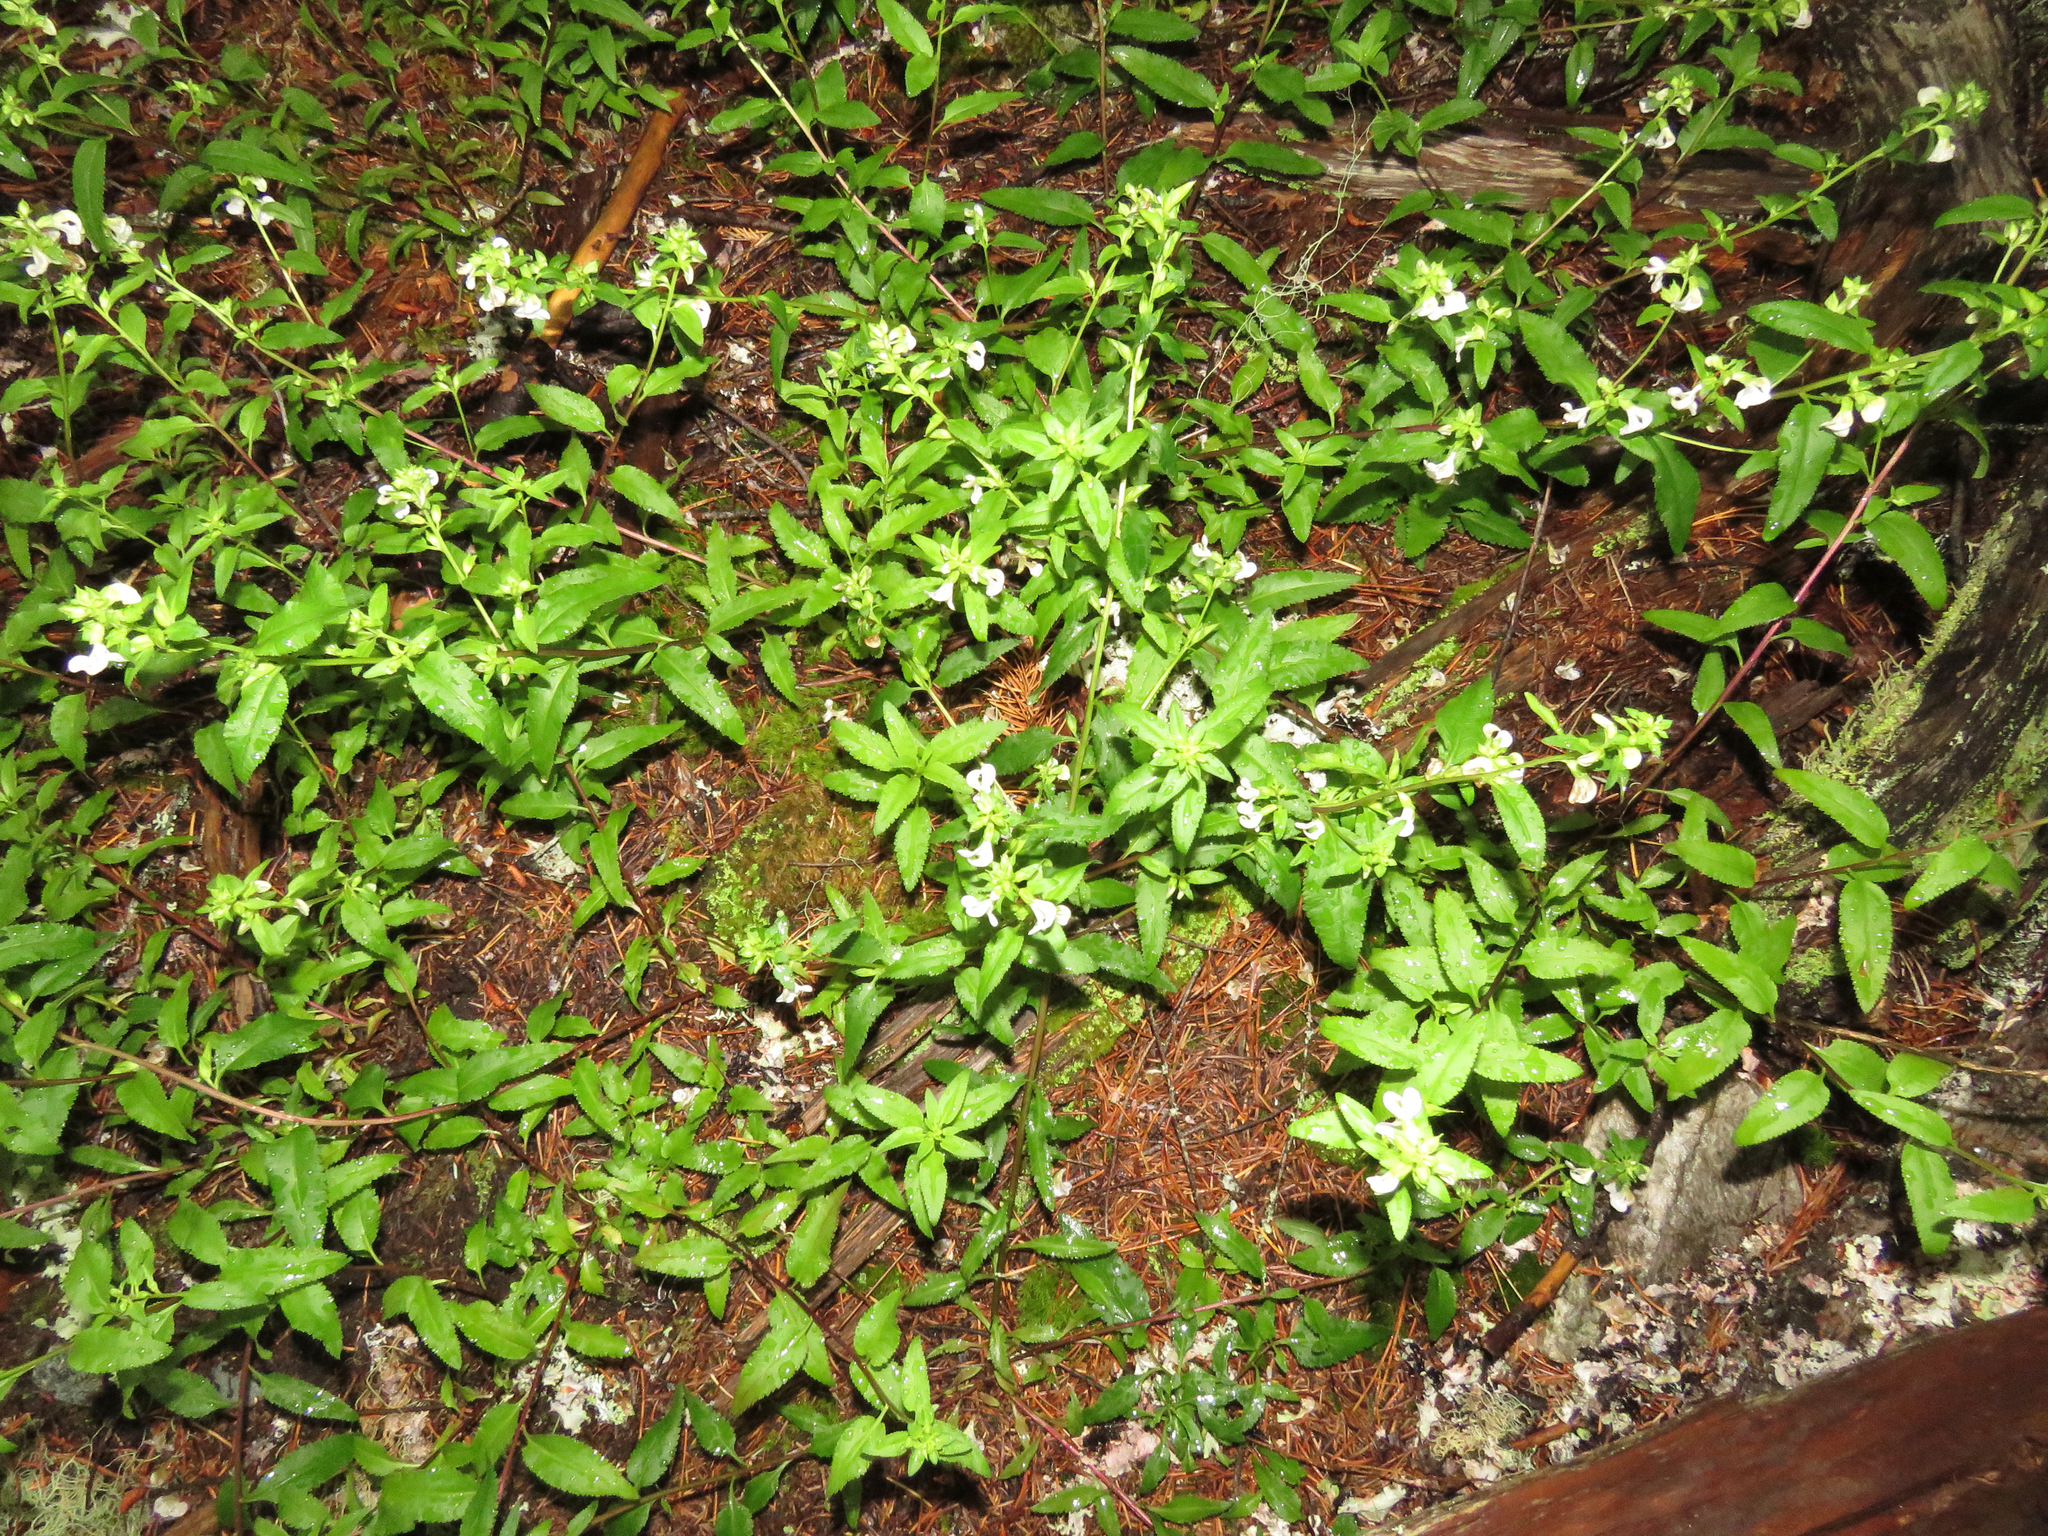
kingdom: Plantae
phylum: Tracheophyta
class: Magnoliopsida
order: Lamiales
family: Orobanchaceae
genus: Pedicularis
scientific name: Pedicularis racemosa
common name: Leafy lousewort
